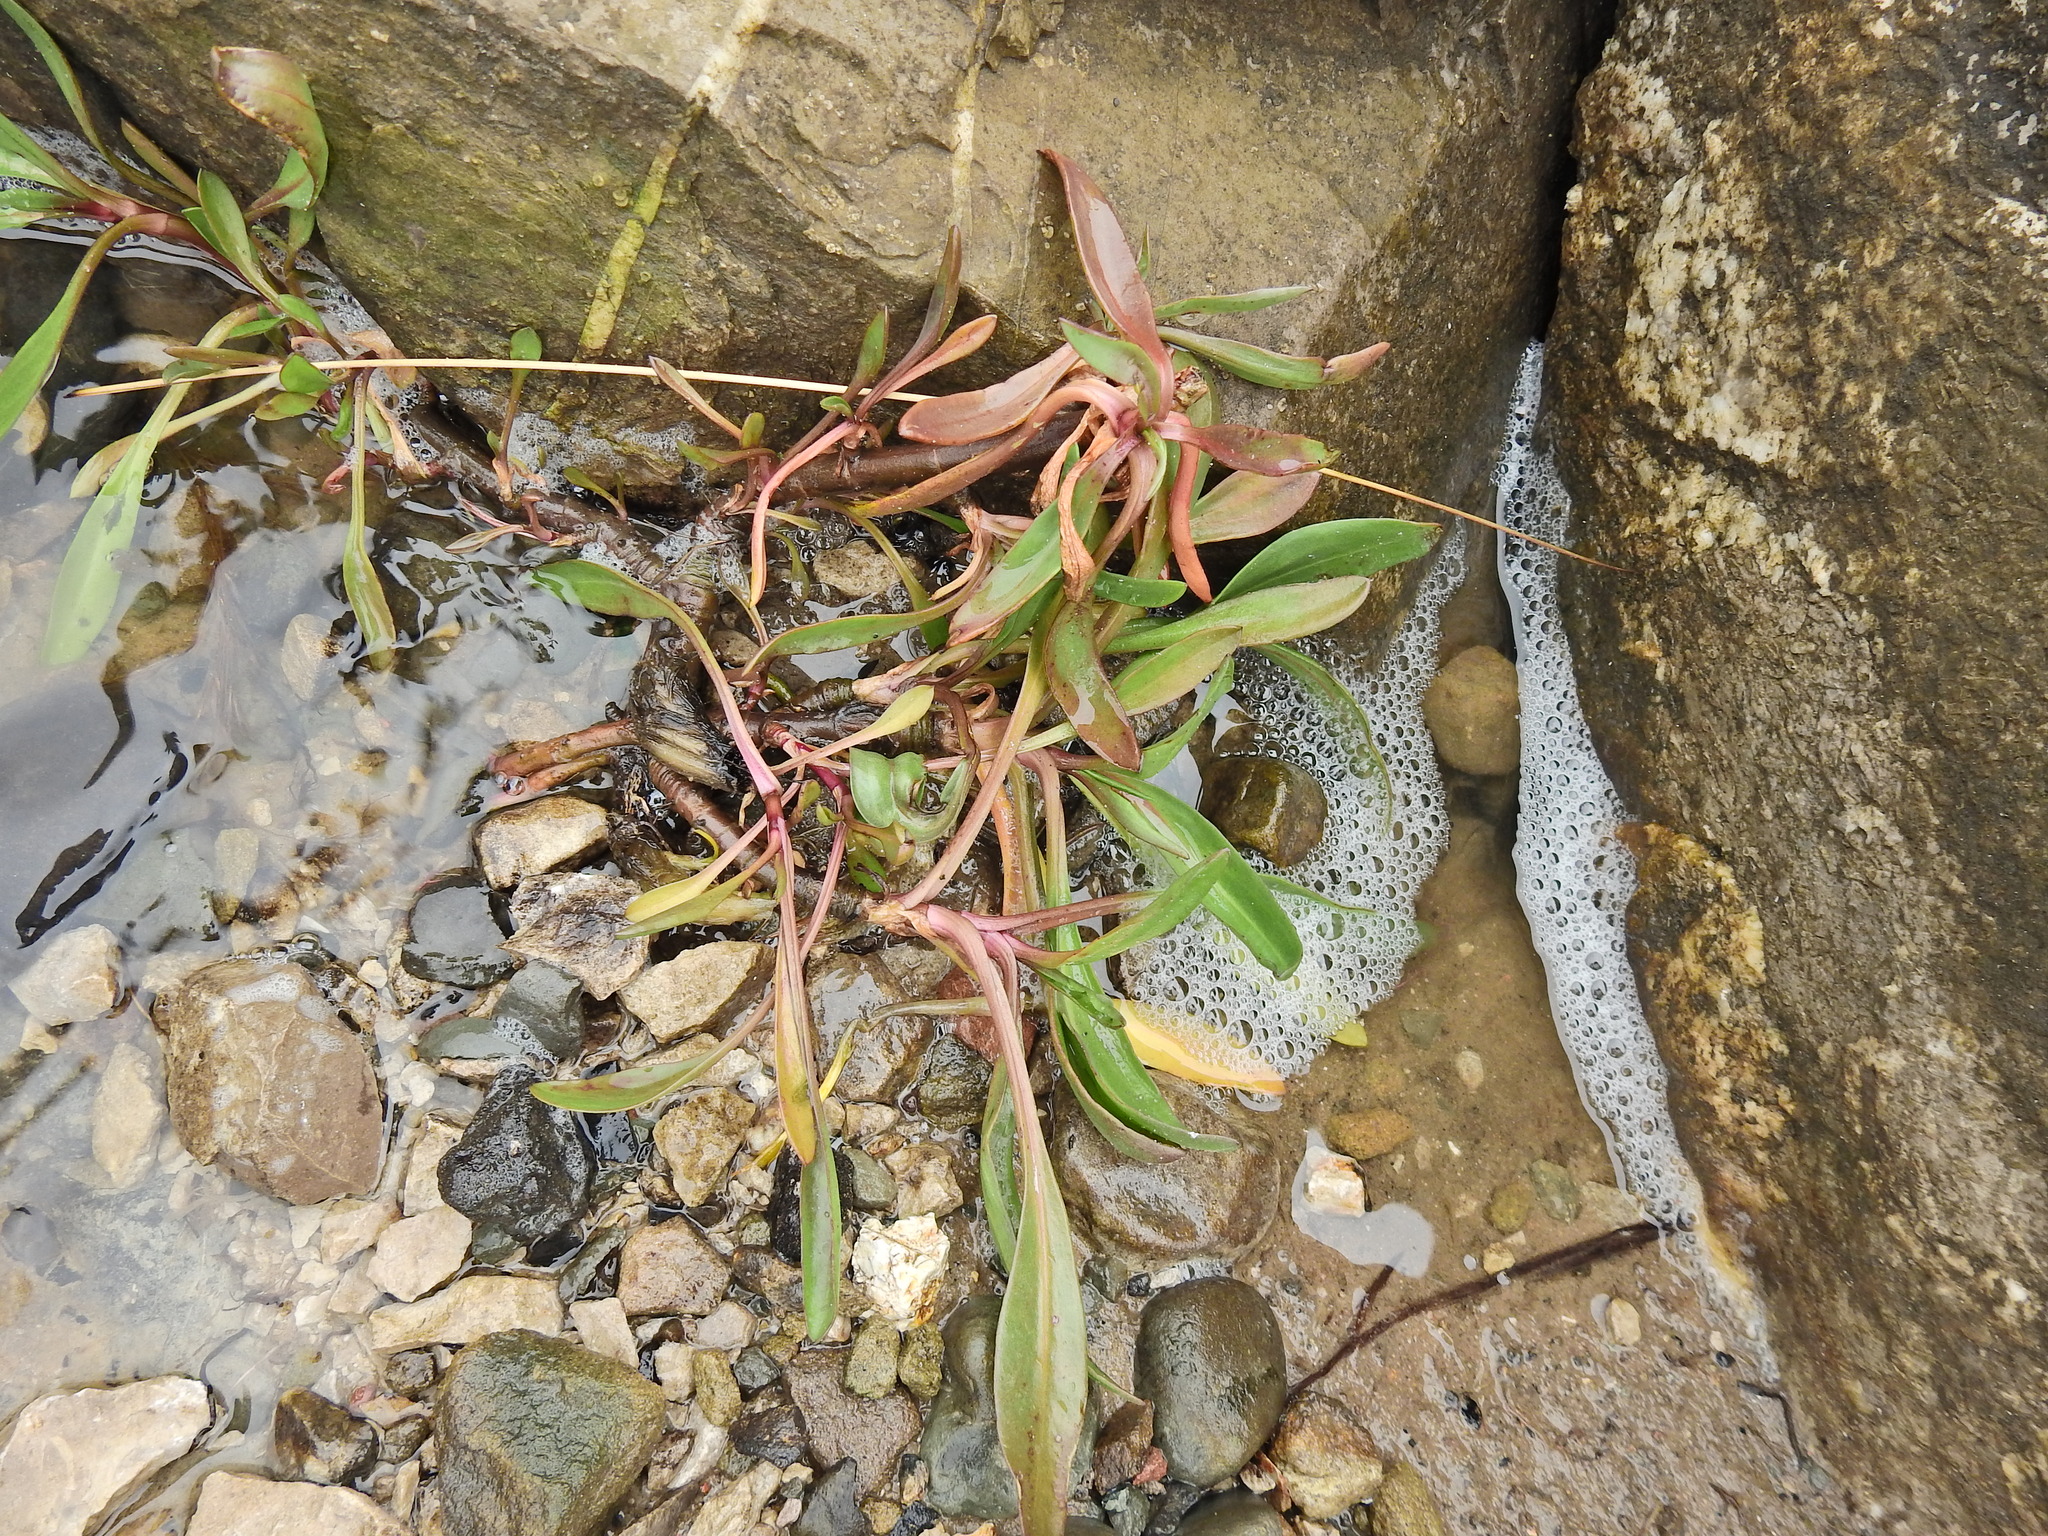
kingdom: Plantae
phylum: Tracheophyta
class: Magnoliopsida
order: Asterales
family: Asteraceae
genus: Tripolium
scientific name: Tripolium pannonicum
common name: Sea aster
